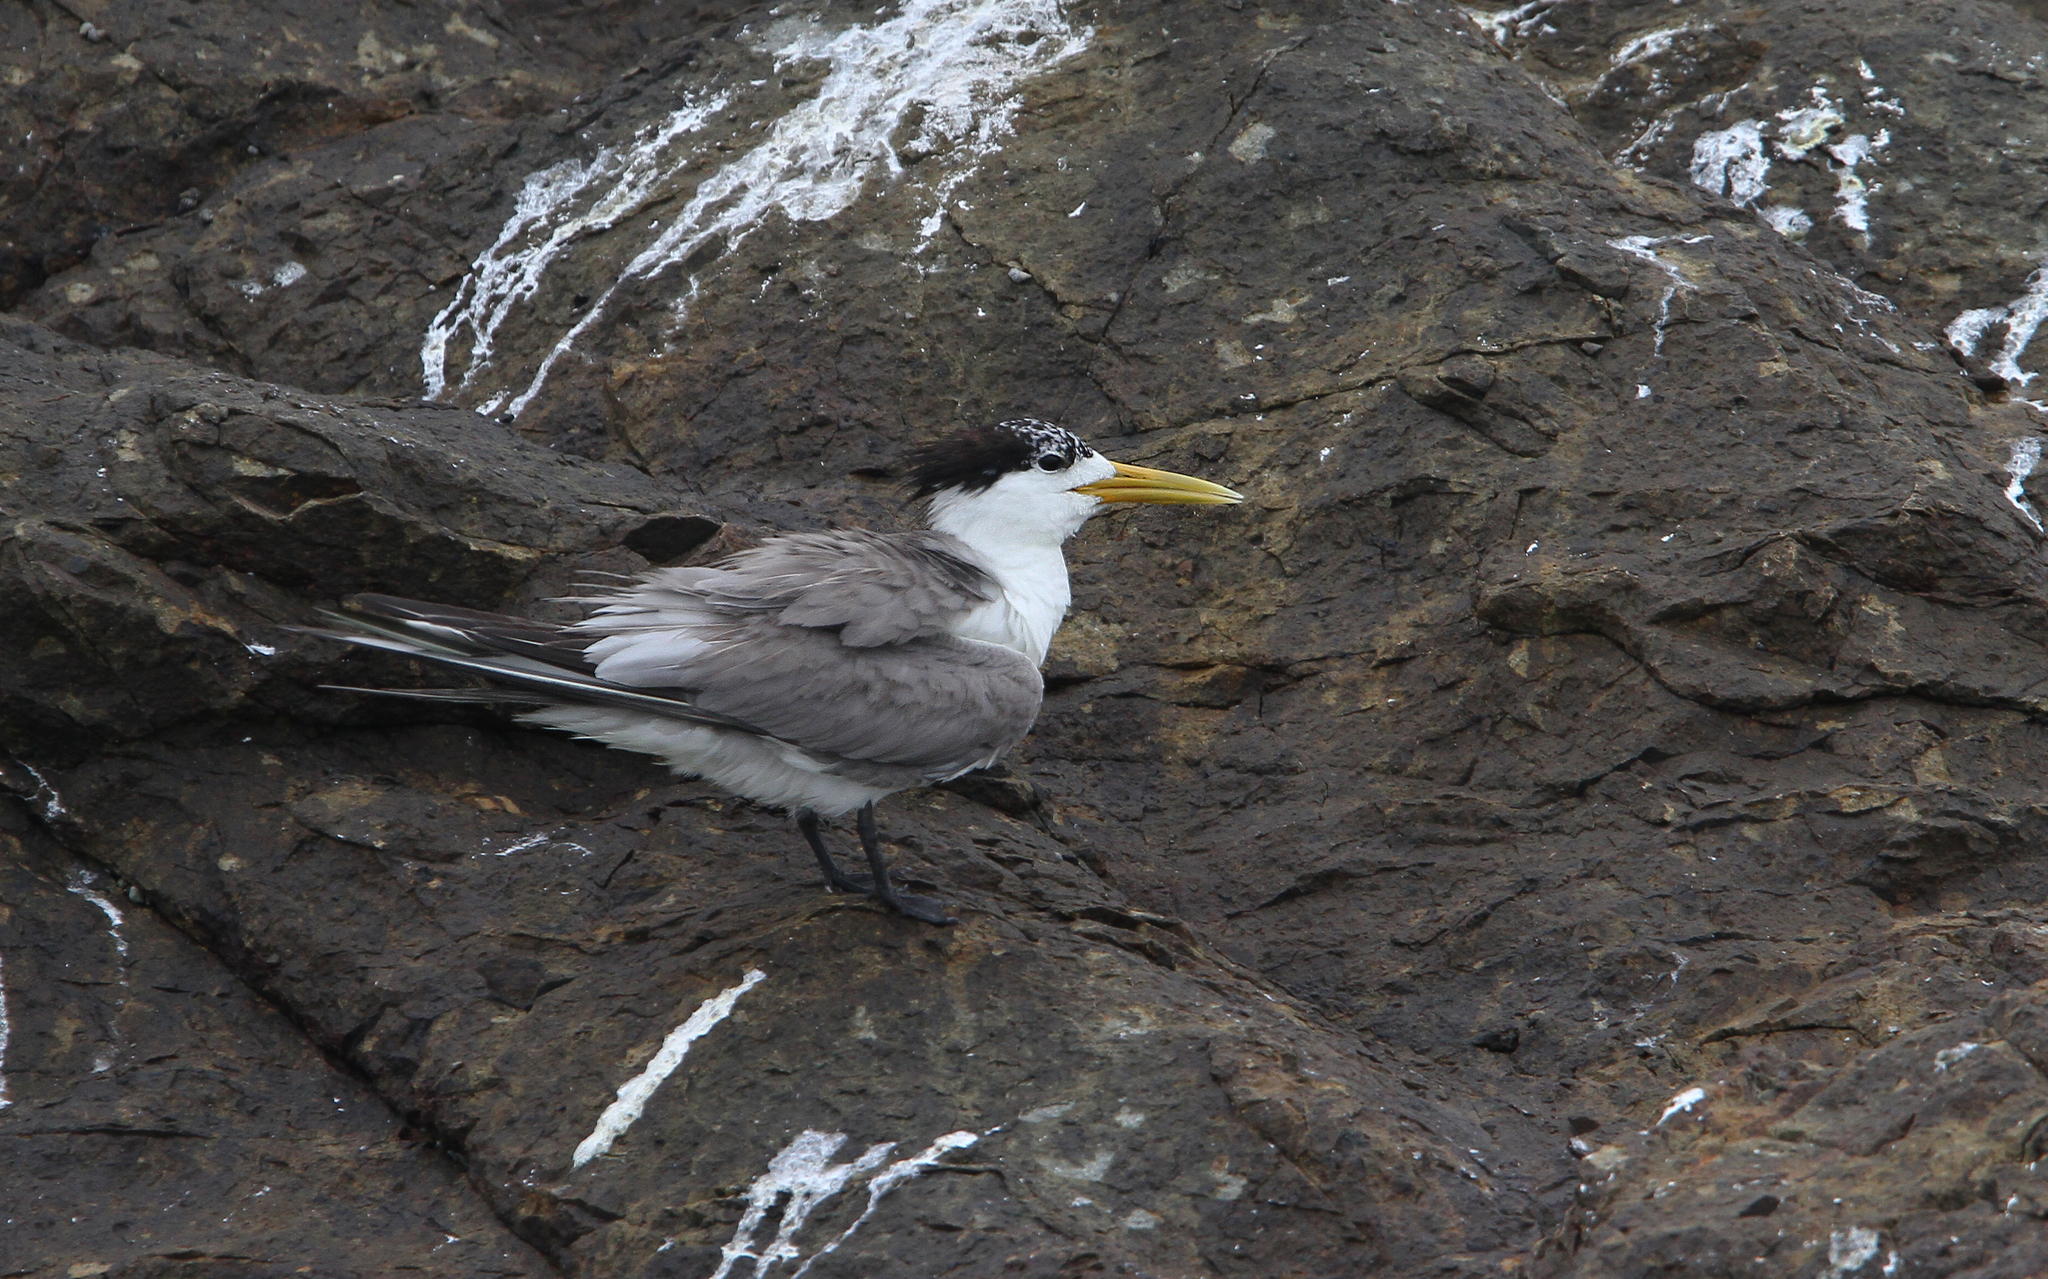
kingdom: Animalia
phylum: Chordata
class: Aves
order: Charadriiformes
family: Laridae
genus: Thalasseus
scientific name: Thalasseus bergii
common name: Greater crested tern
